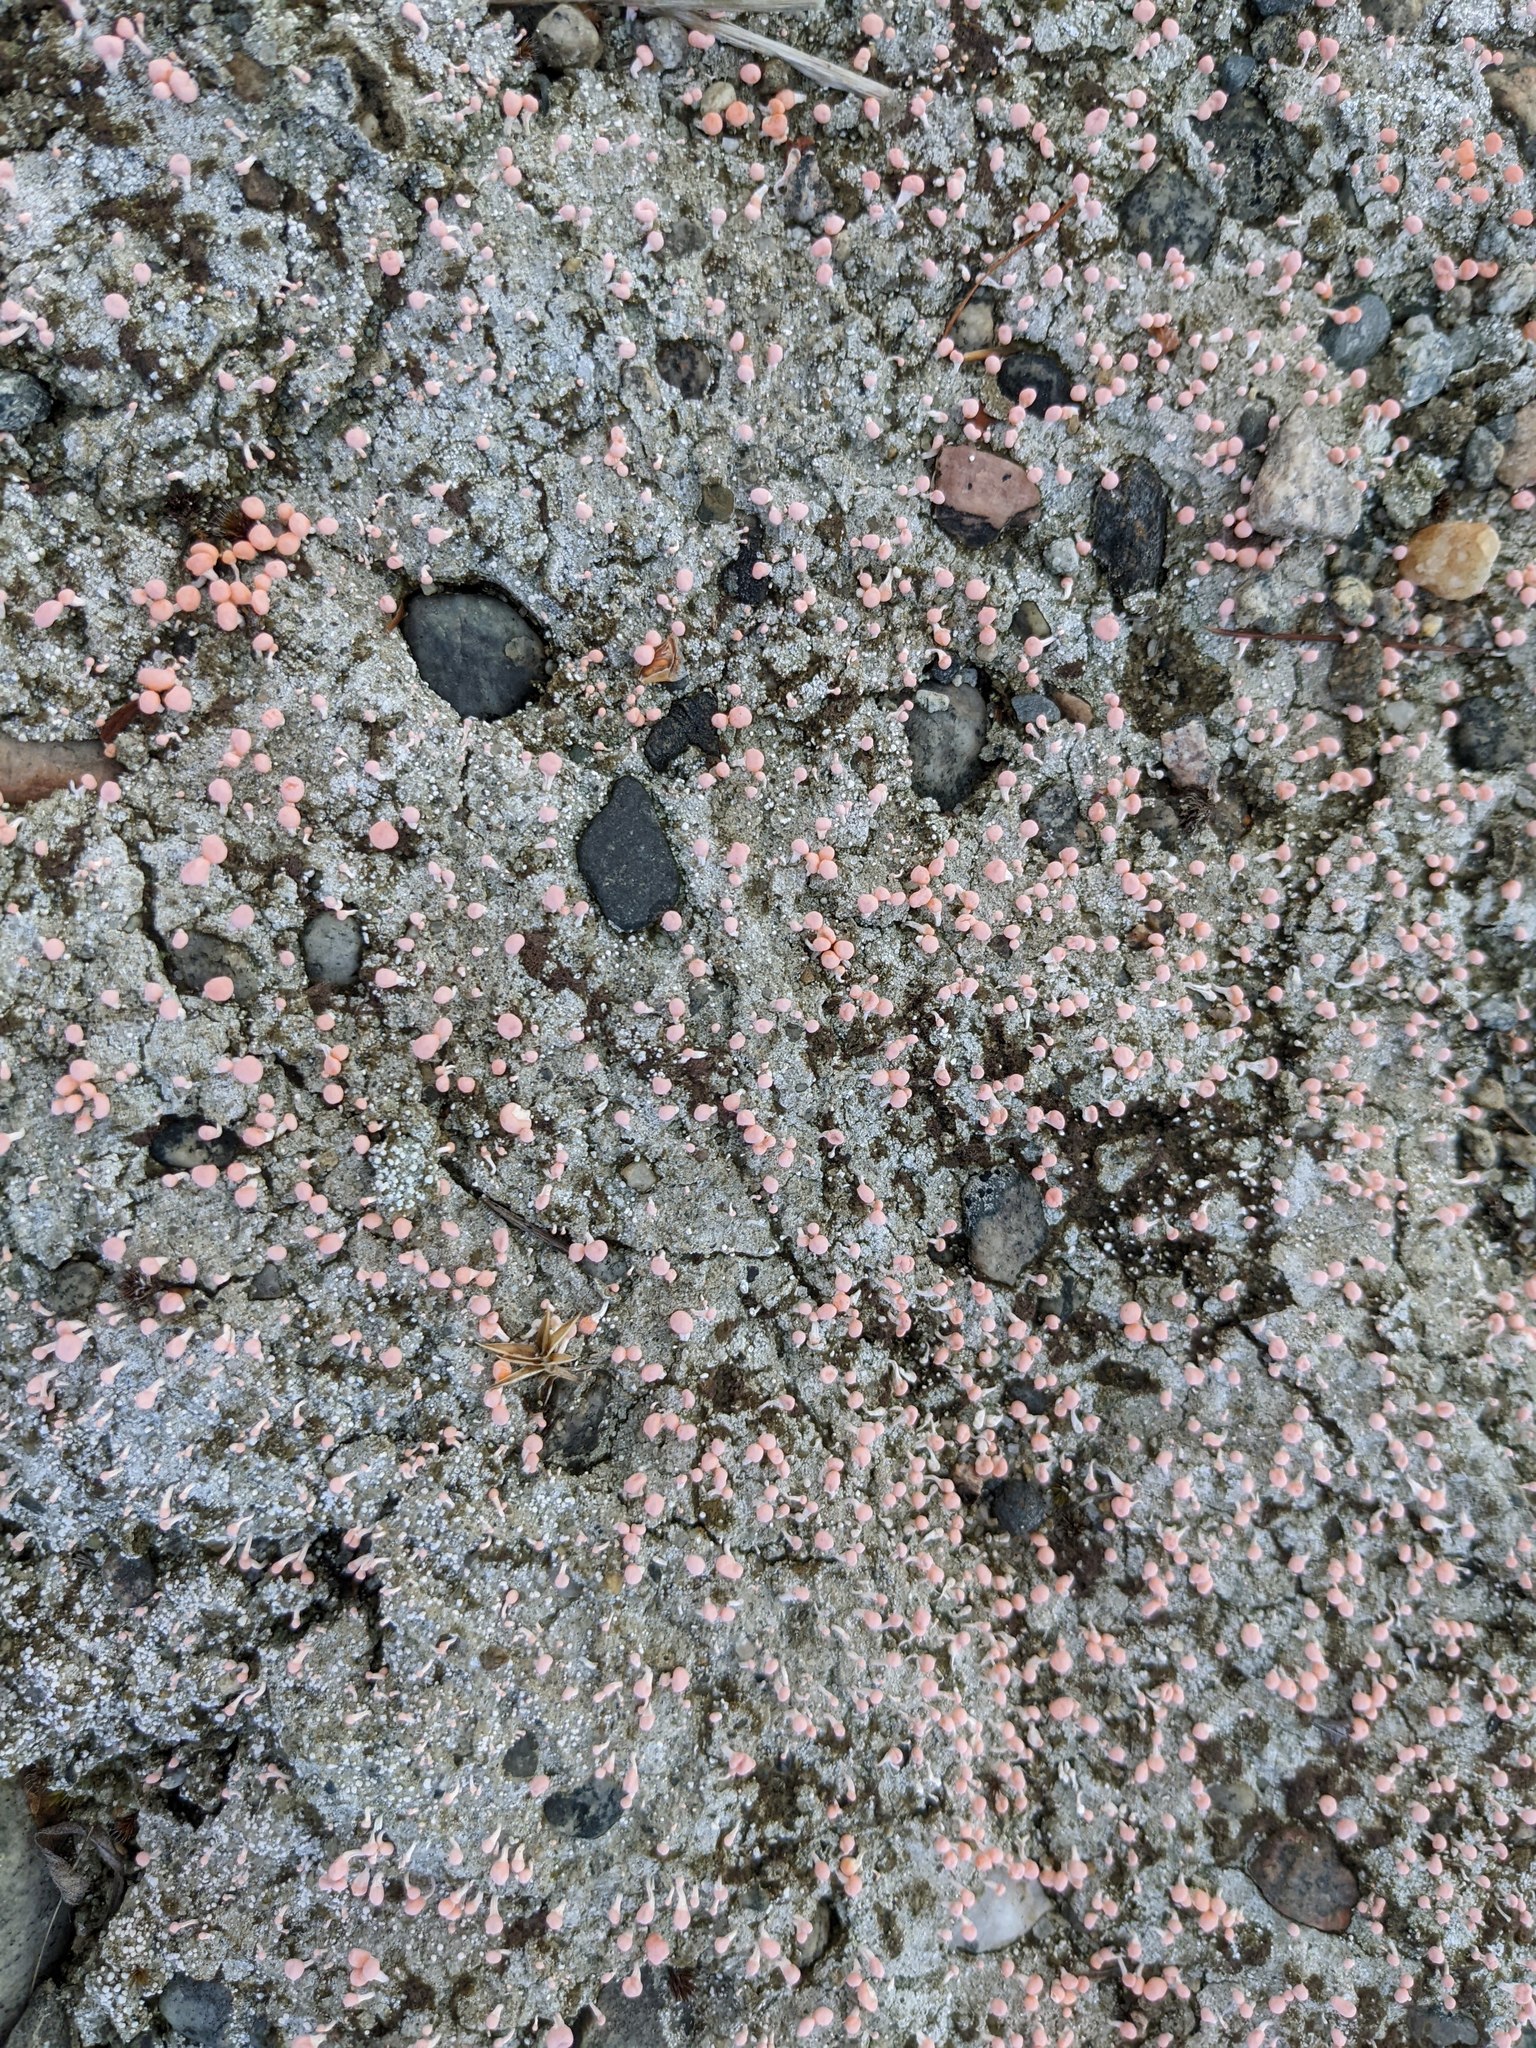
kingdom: Fungi
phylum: Ascomycota
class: Lecanoromycetes
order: Pertusariales
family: Icmadophilaceae
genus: Dibaeis
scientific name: Dibaeis baeomyces
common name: Pink earth lichen
